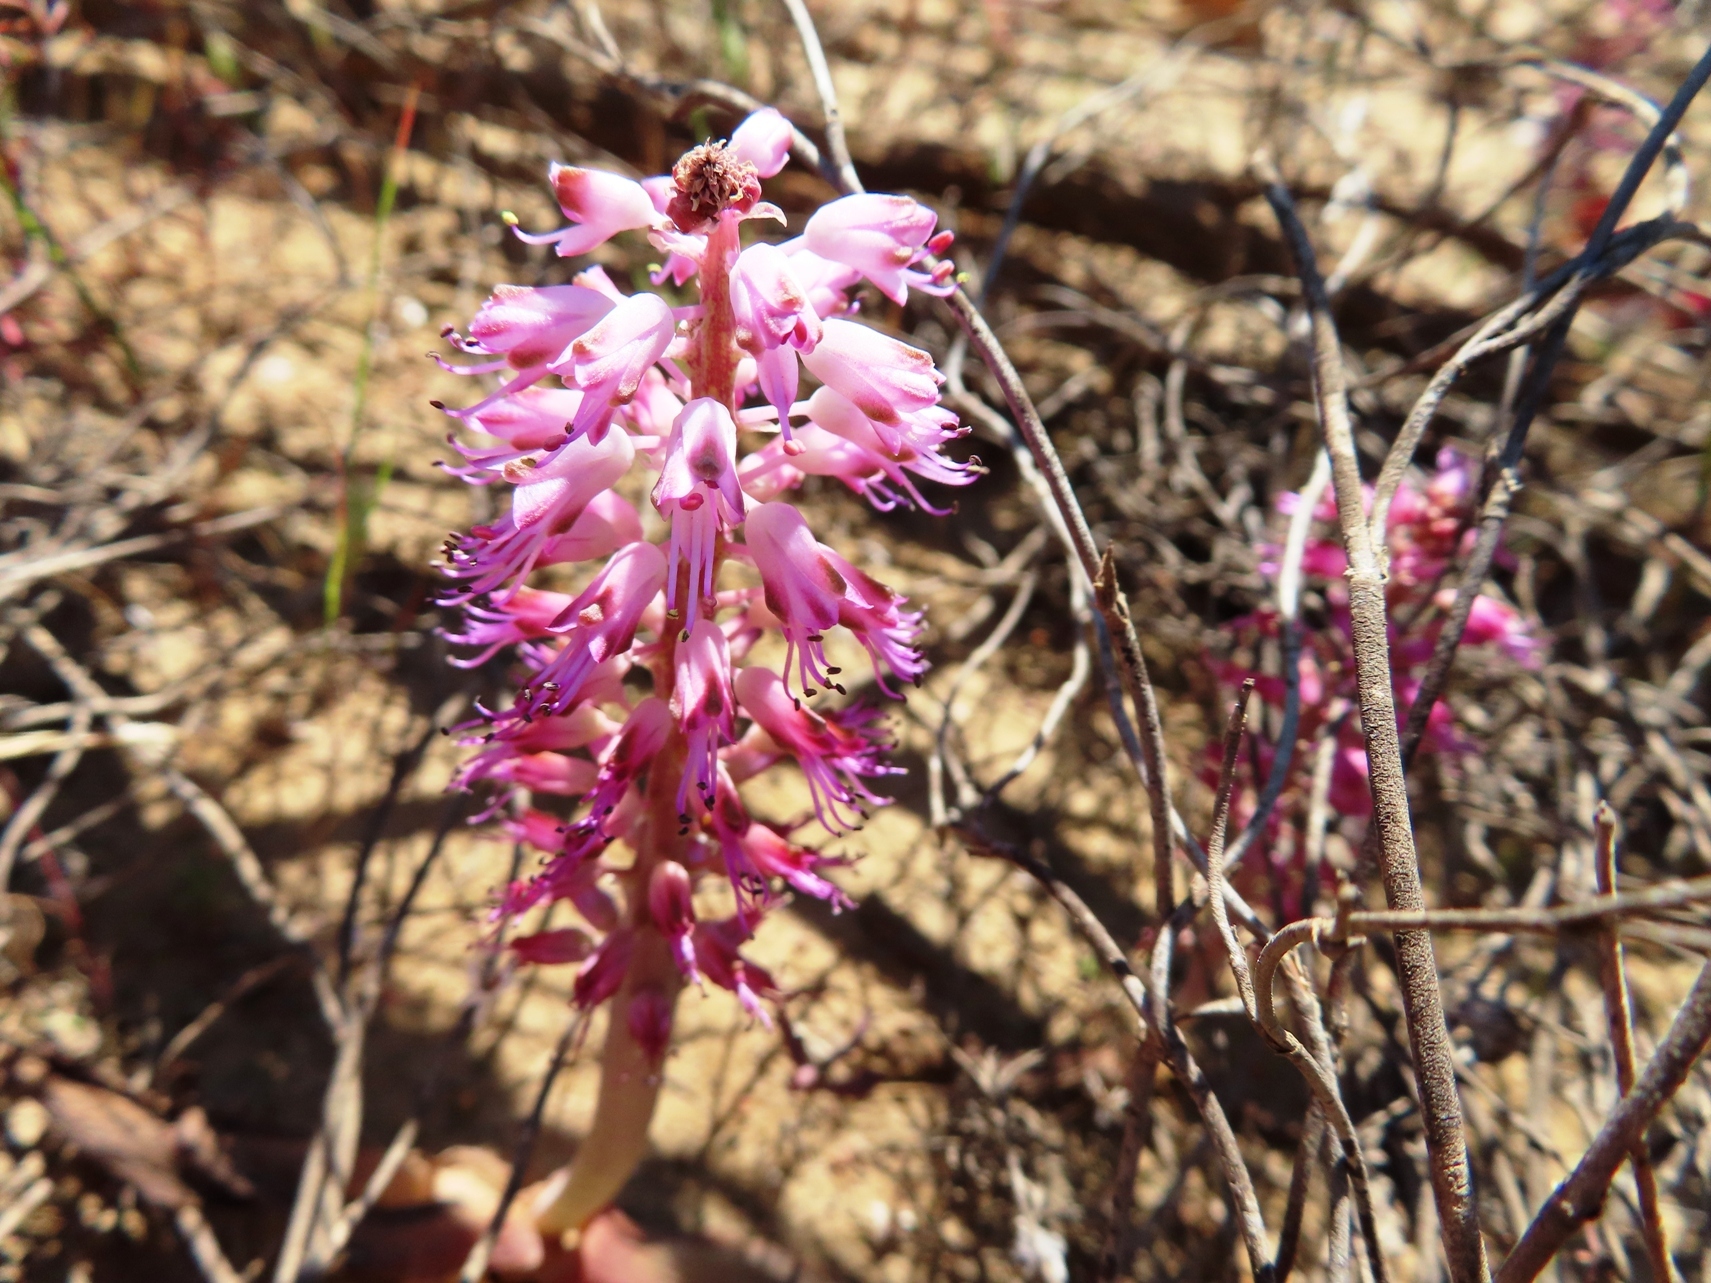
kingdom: Plantae
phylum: Tracheophyta
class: Liliopsida
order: Asparagales
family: Asparagaceae
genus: Lachenalia
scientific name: Lachenalia nardousbergensis
